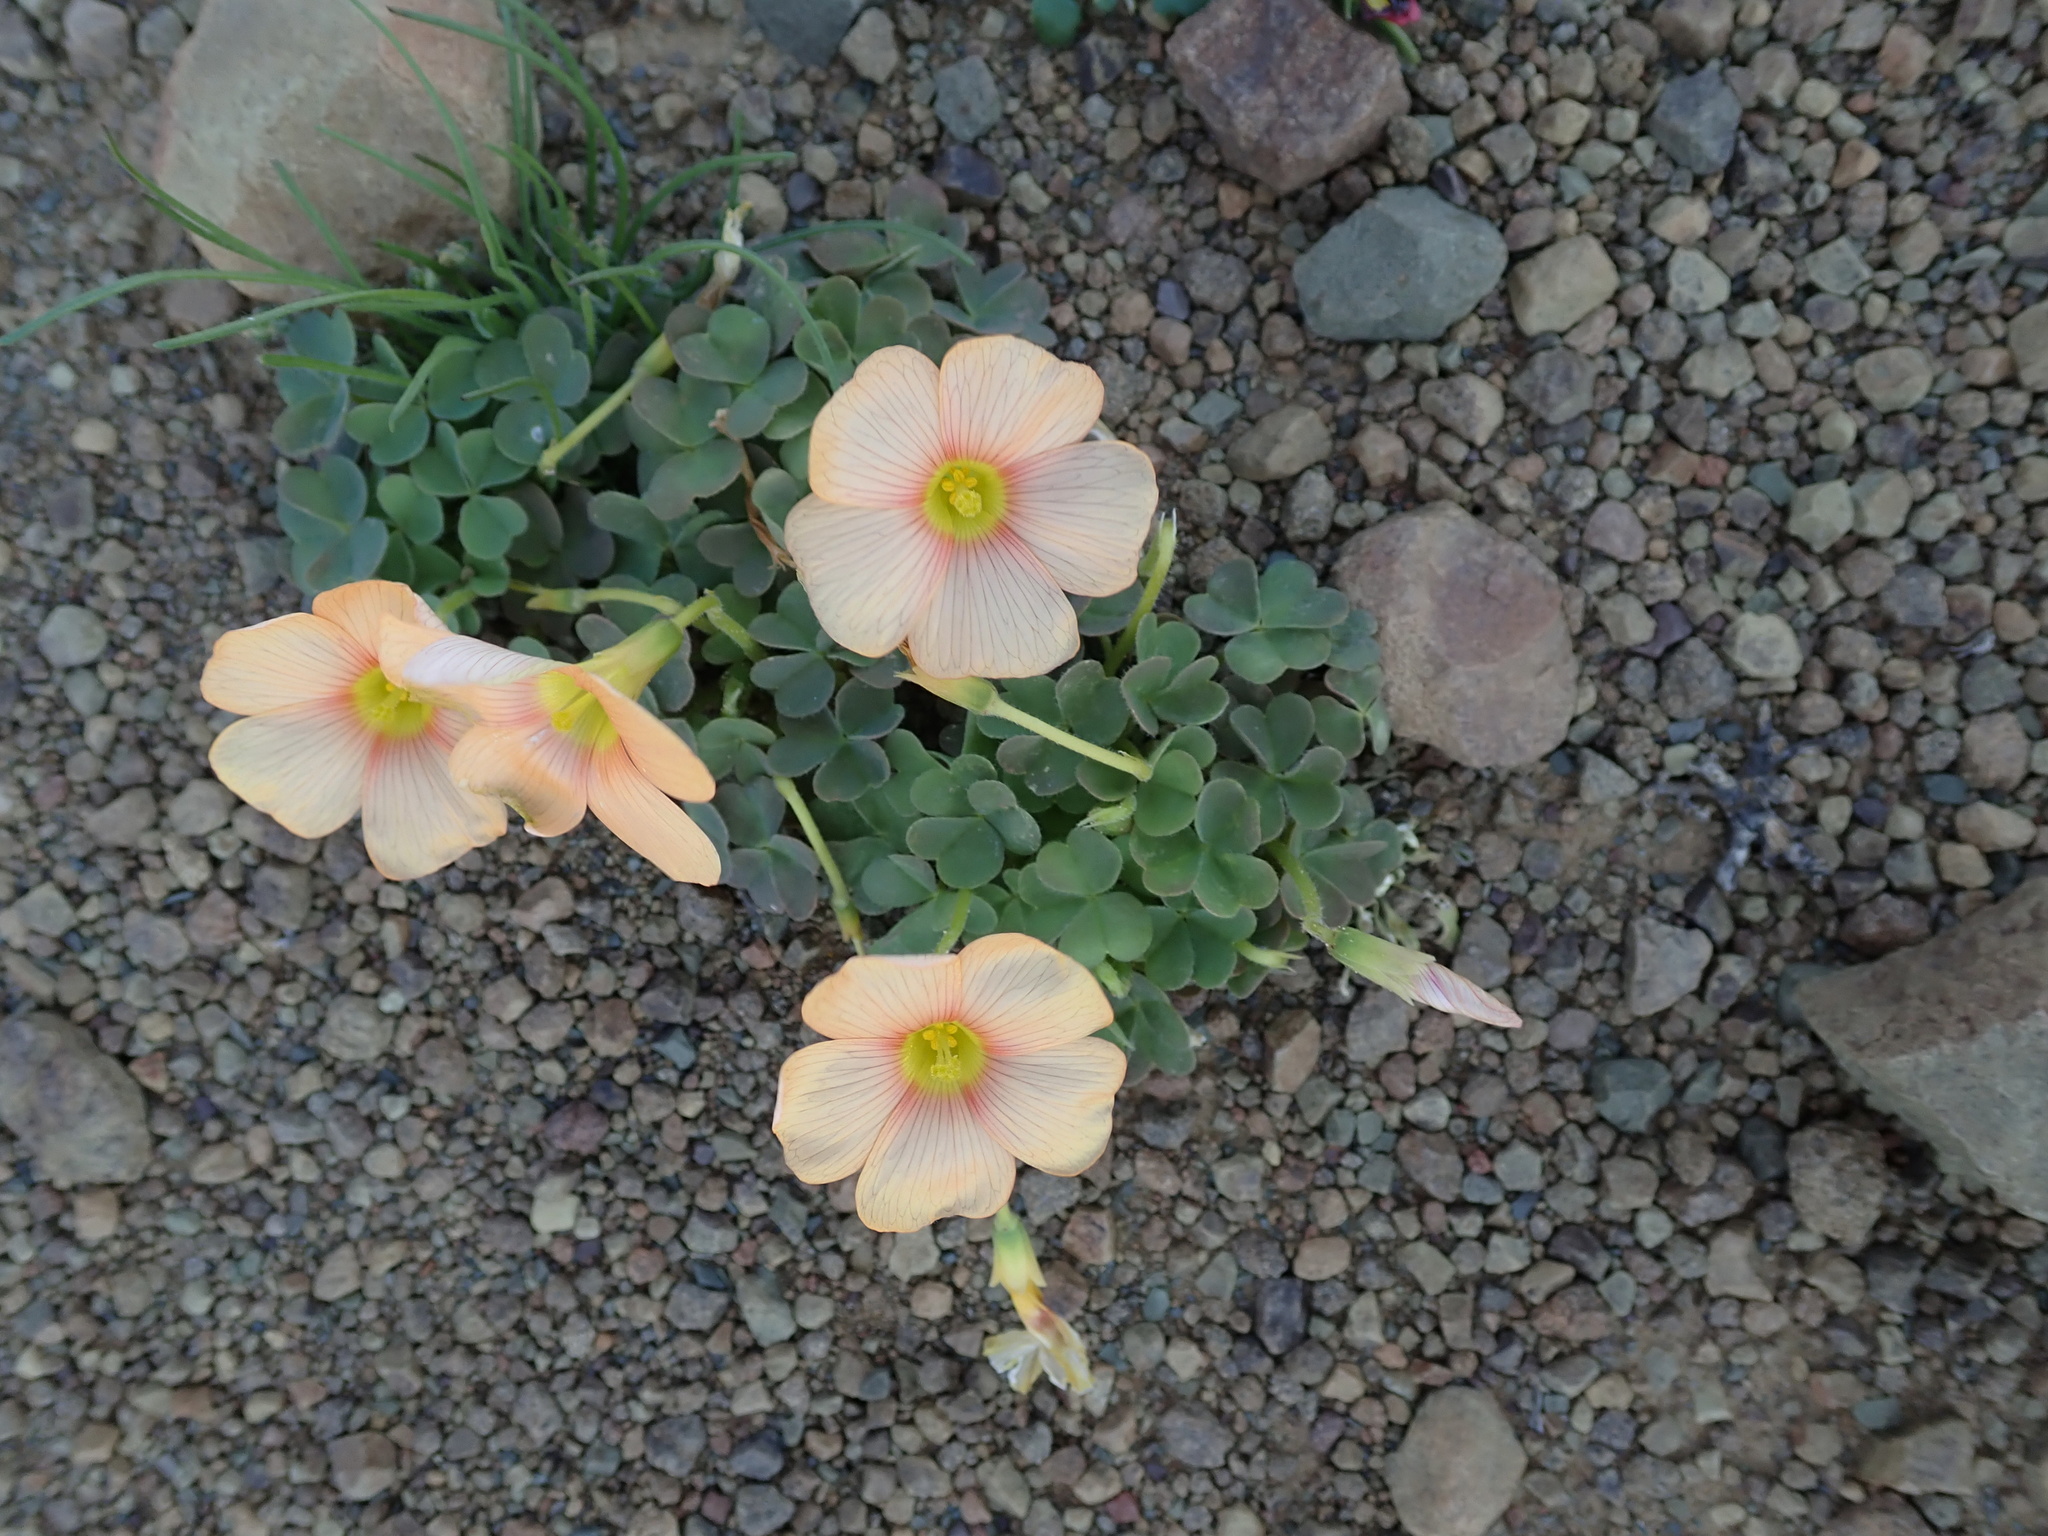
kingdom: Plantae
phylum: Tracheophyta
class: Magnoliopsida
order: Oxalidales
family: Oxalidaceae
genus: Oxalis
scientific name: Oxalis obtusa
